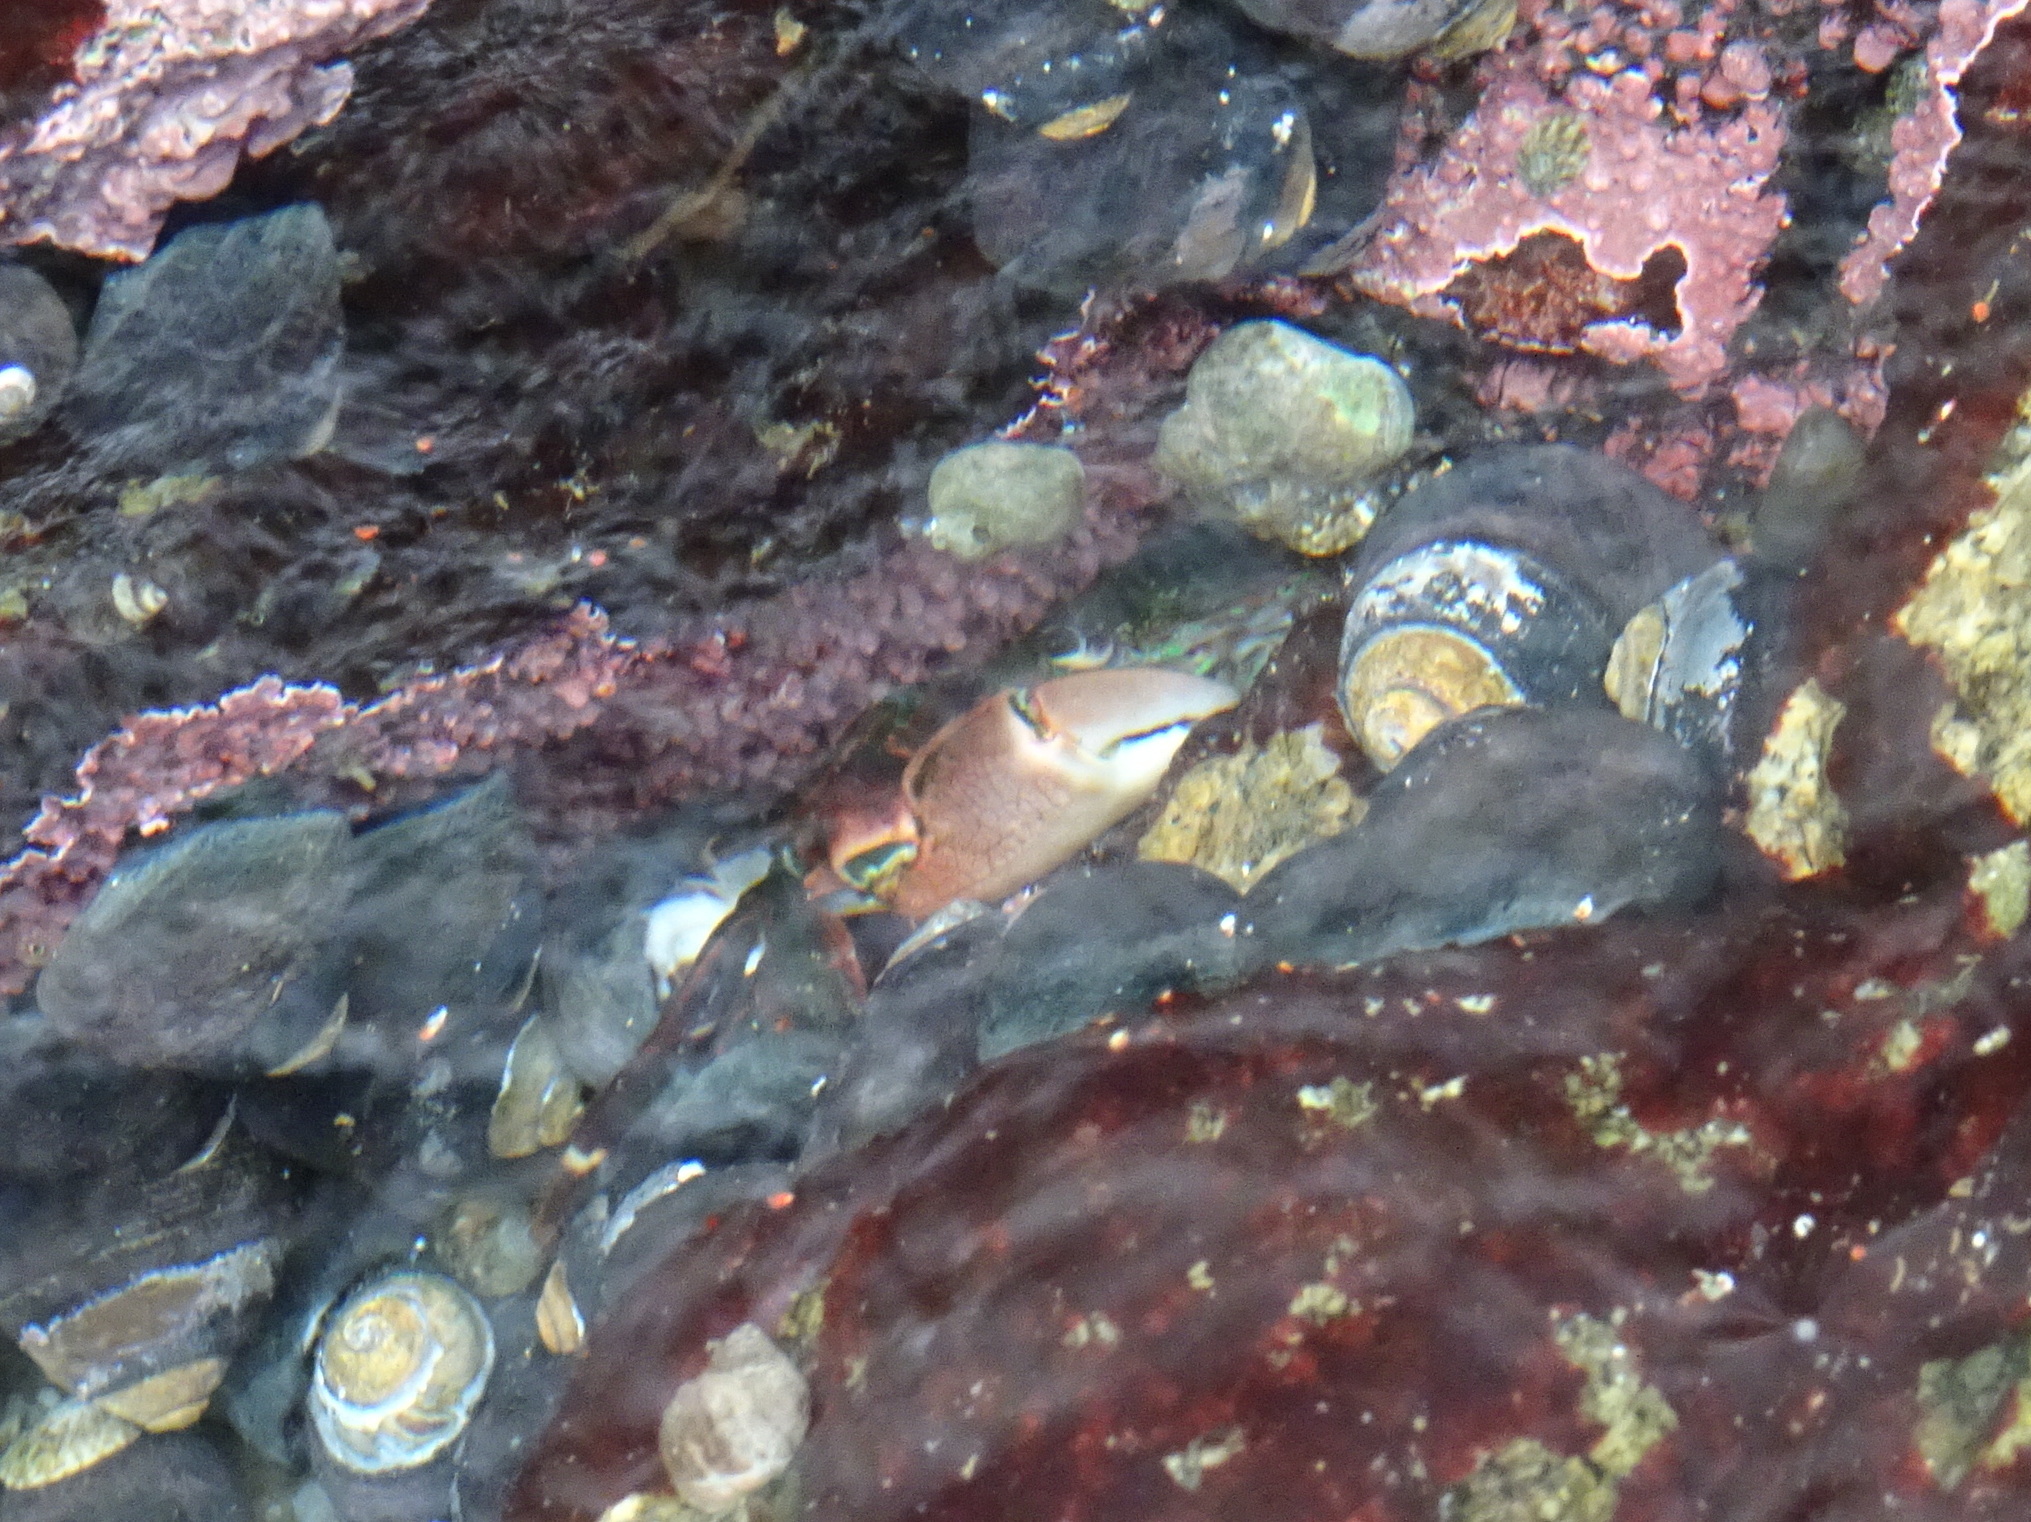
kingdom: Animalia
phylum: Arthropoda
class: Malacostraca
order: Decapoda
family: Grapsidae
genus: Pachygrapsus
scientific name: Pachygrapsus crassipes
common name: Striped shore crab
